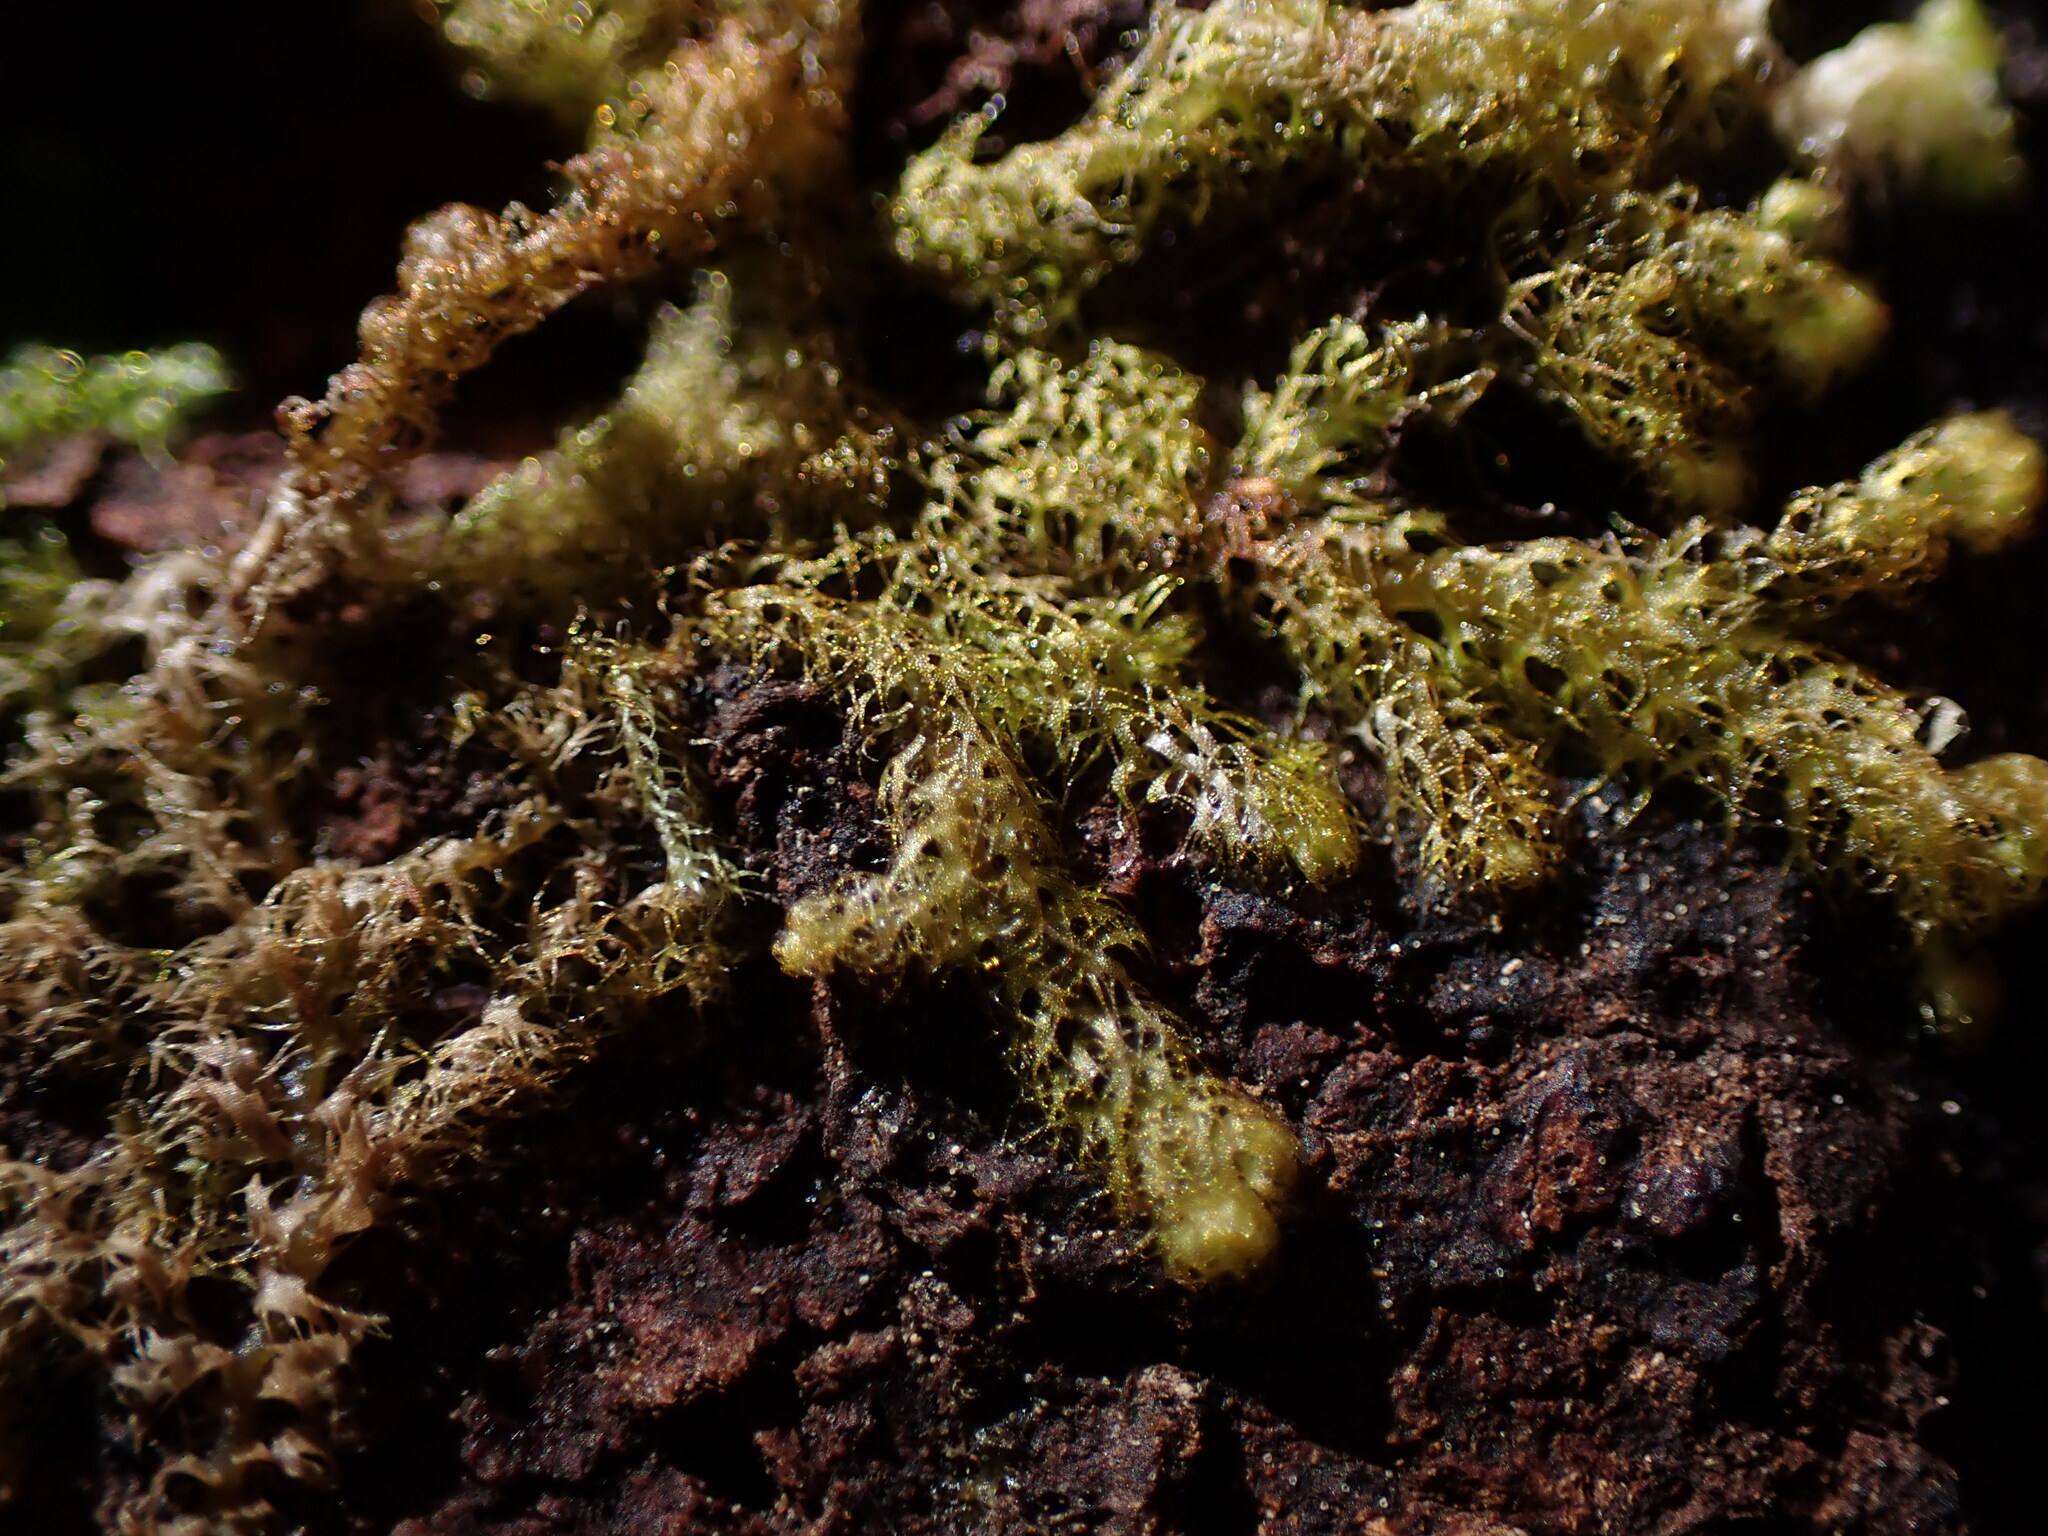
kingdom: Plantae
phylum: Marchantiophyta
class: Jungermanniopsida
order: Ptilidiales
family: Ptilidiaceae
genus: Ptilidium
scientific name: Ptilidium californicum
